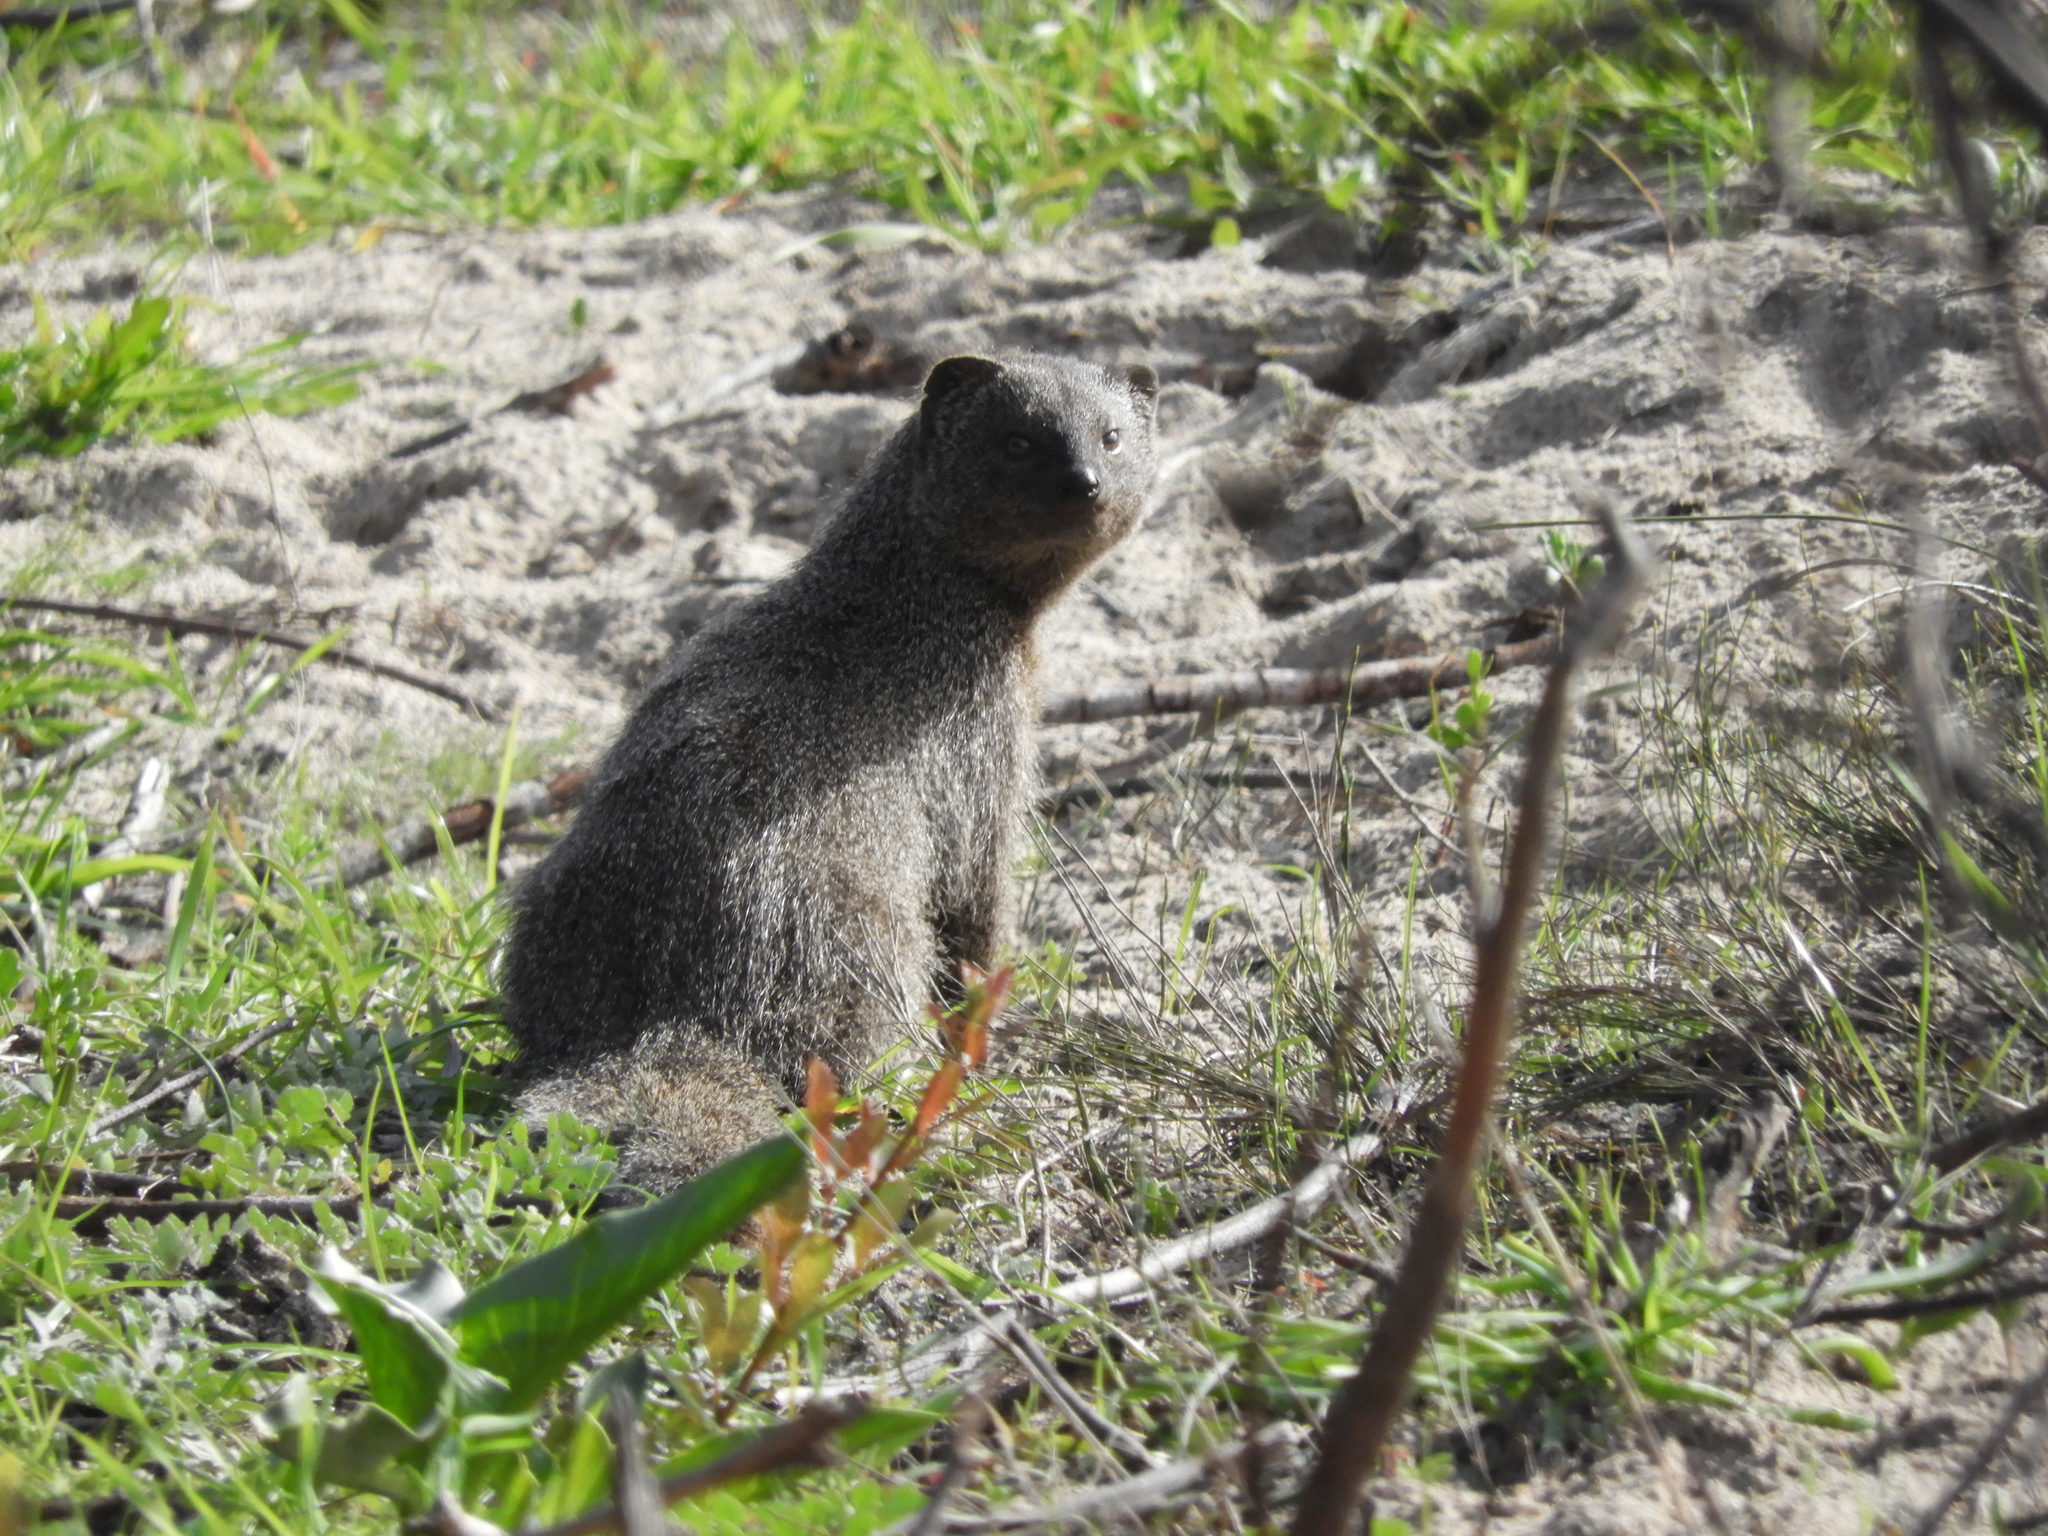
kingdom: Animalia
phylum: Chordata
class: Mammalia
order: Carnivora
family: Herpestidae
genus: Galerella
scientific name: Galerella pulverulenta
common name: Cape gray mongoose
